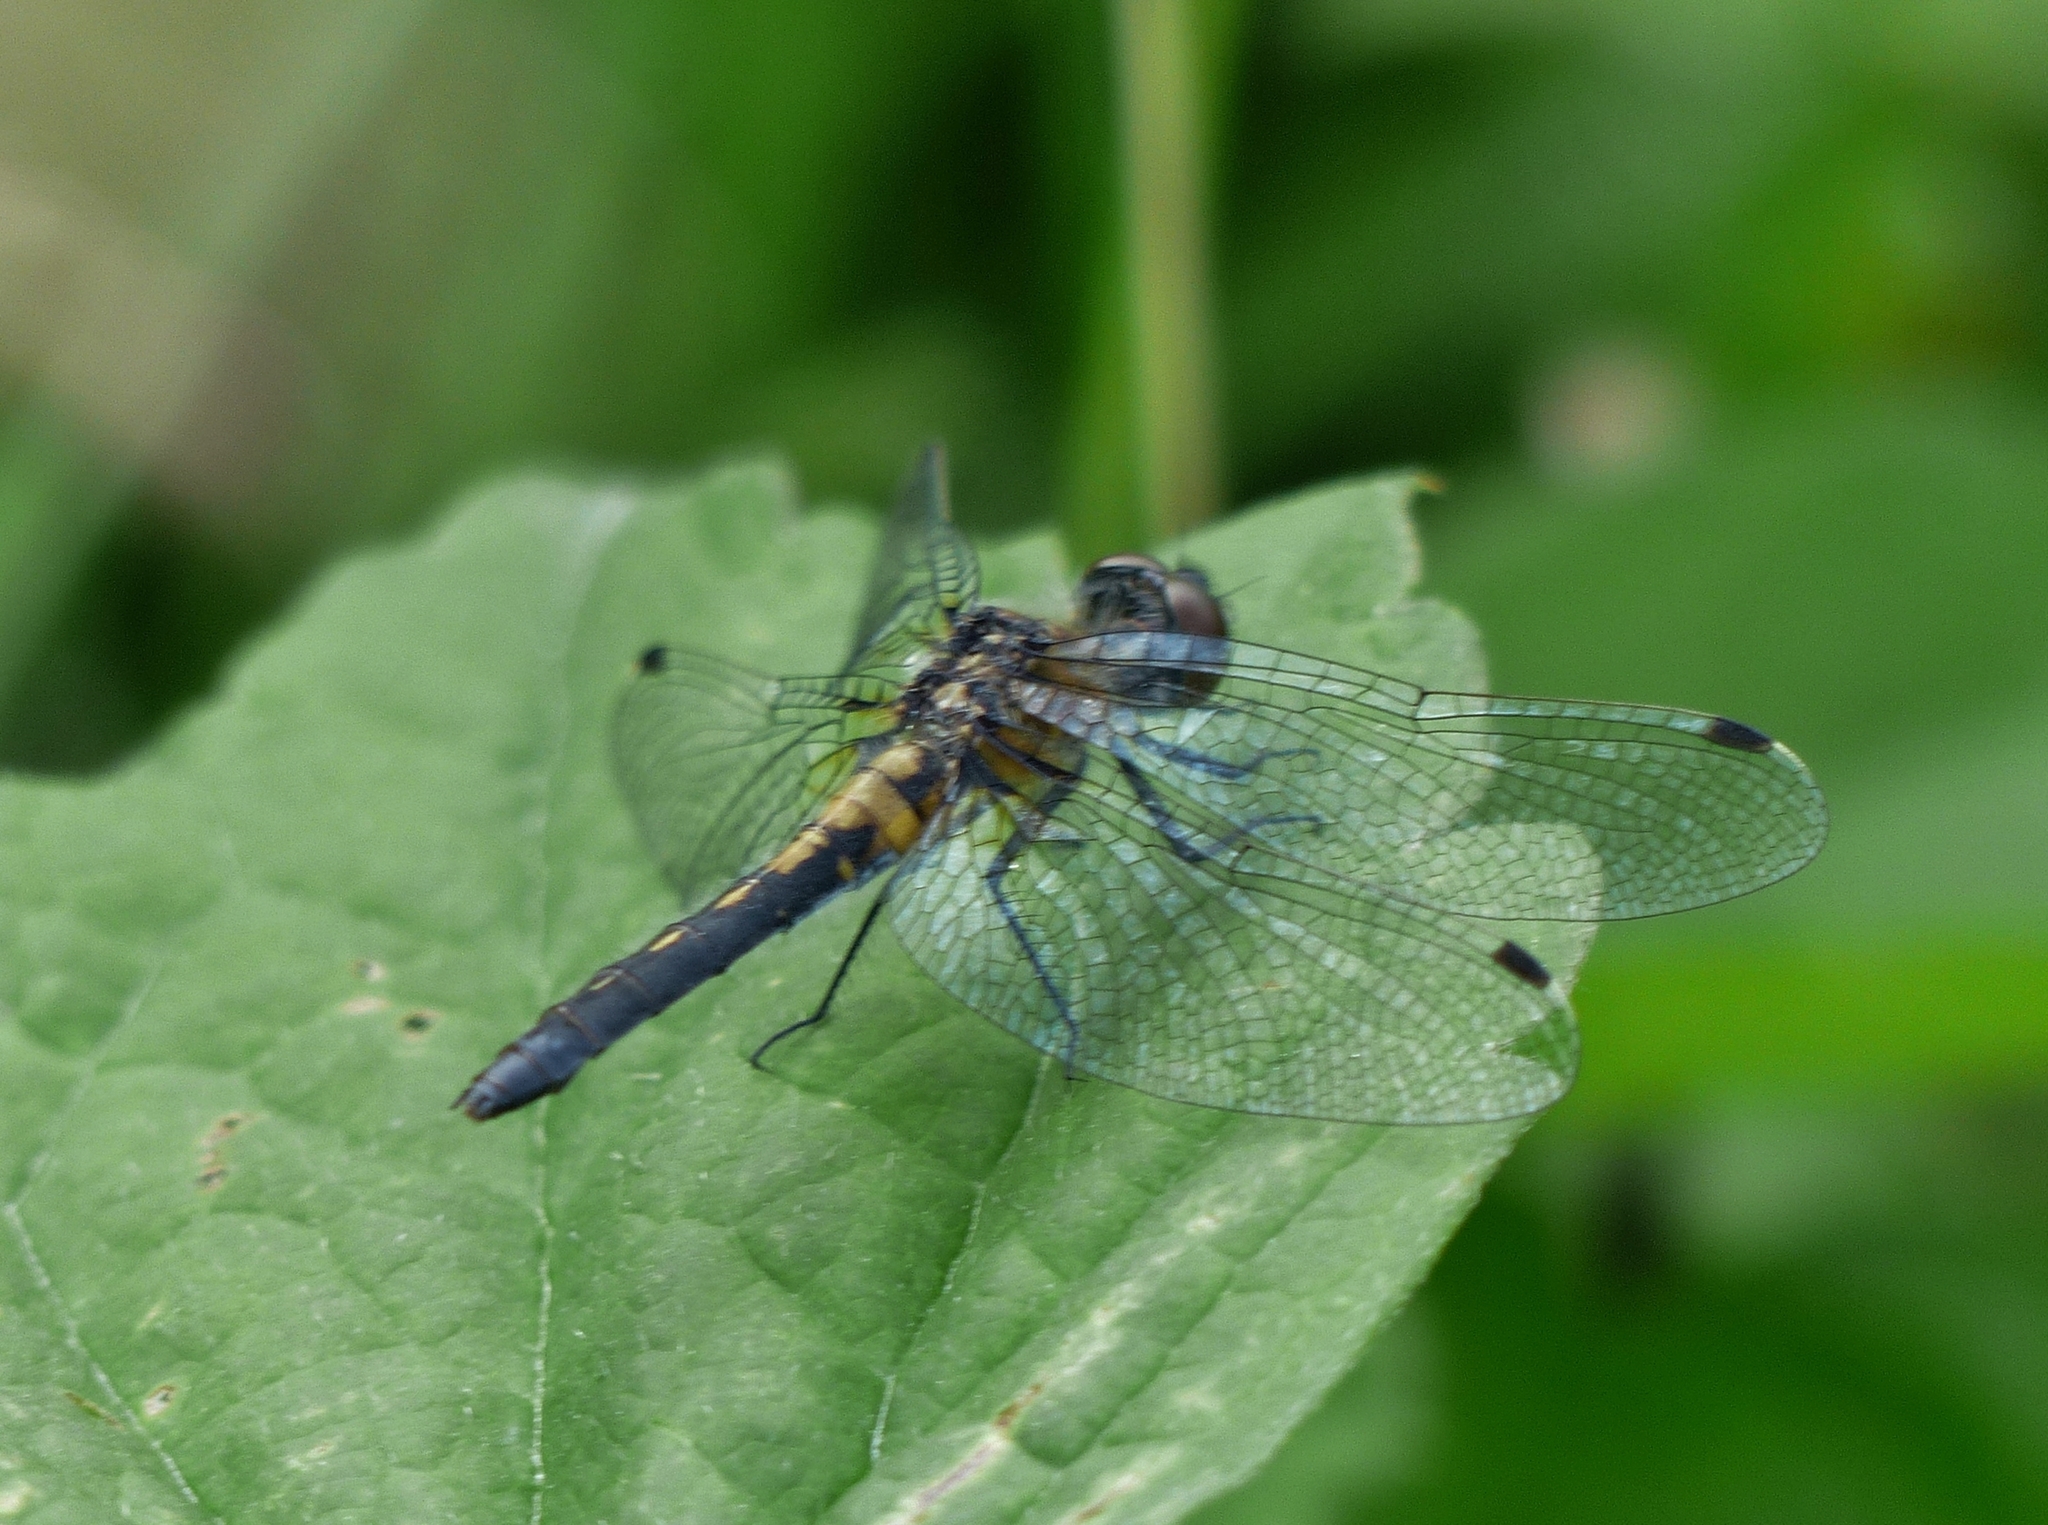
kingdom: Animalia
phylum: Arthropoda
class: Insecta
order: Odonata
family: Libellulidae
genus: Leucorrhinia
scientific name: Leucorrhinia frigida
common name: Frosted whiteface
